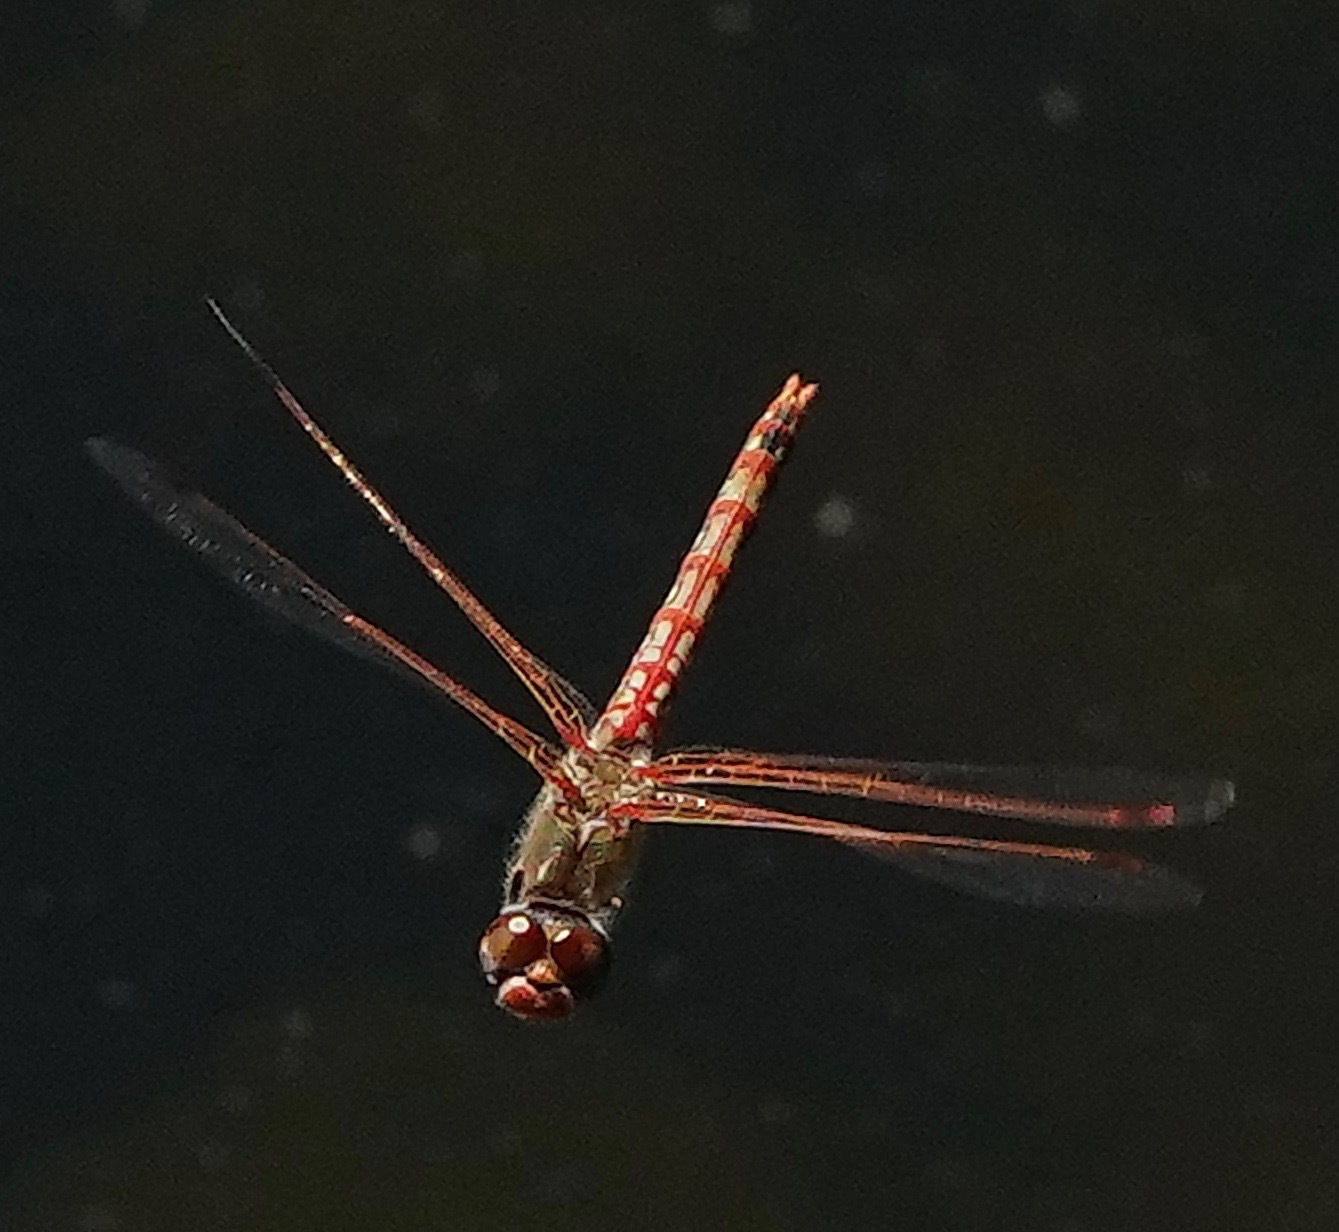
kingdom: Animalia
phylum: Arthropoda
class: Insecta
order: Odonata
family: Libellulidae
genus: Sympetrum
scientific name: Sympetrum corruptum
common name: Variegated meadowhawk
